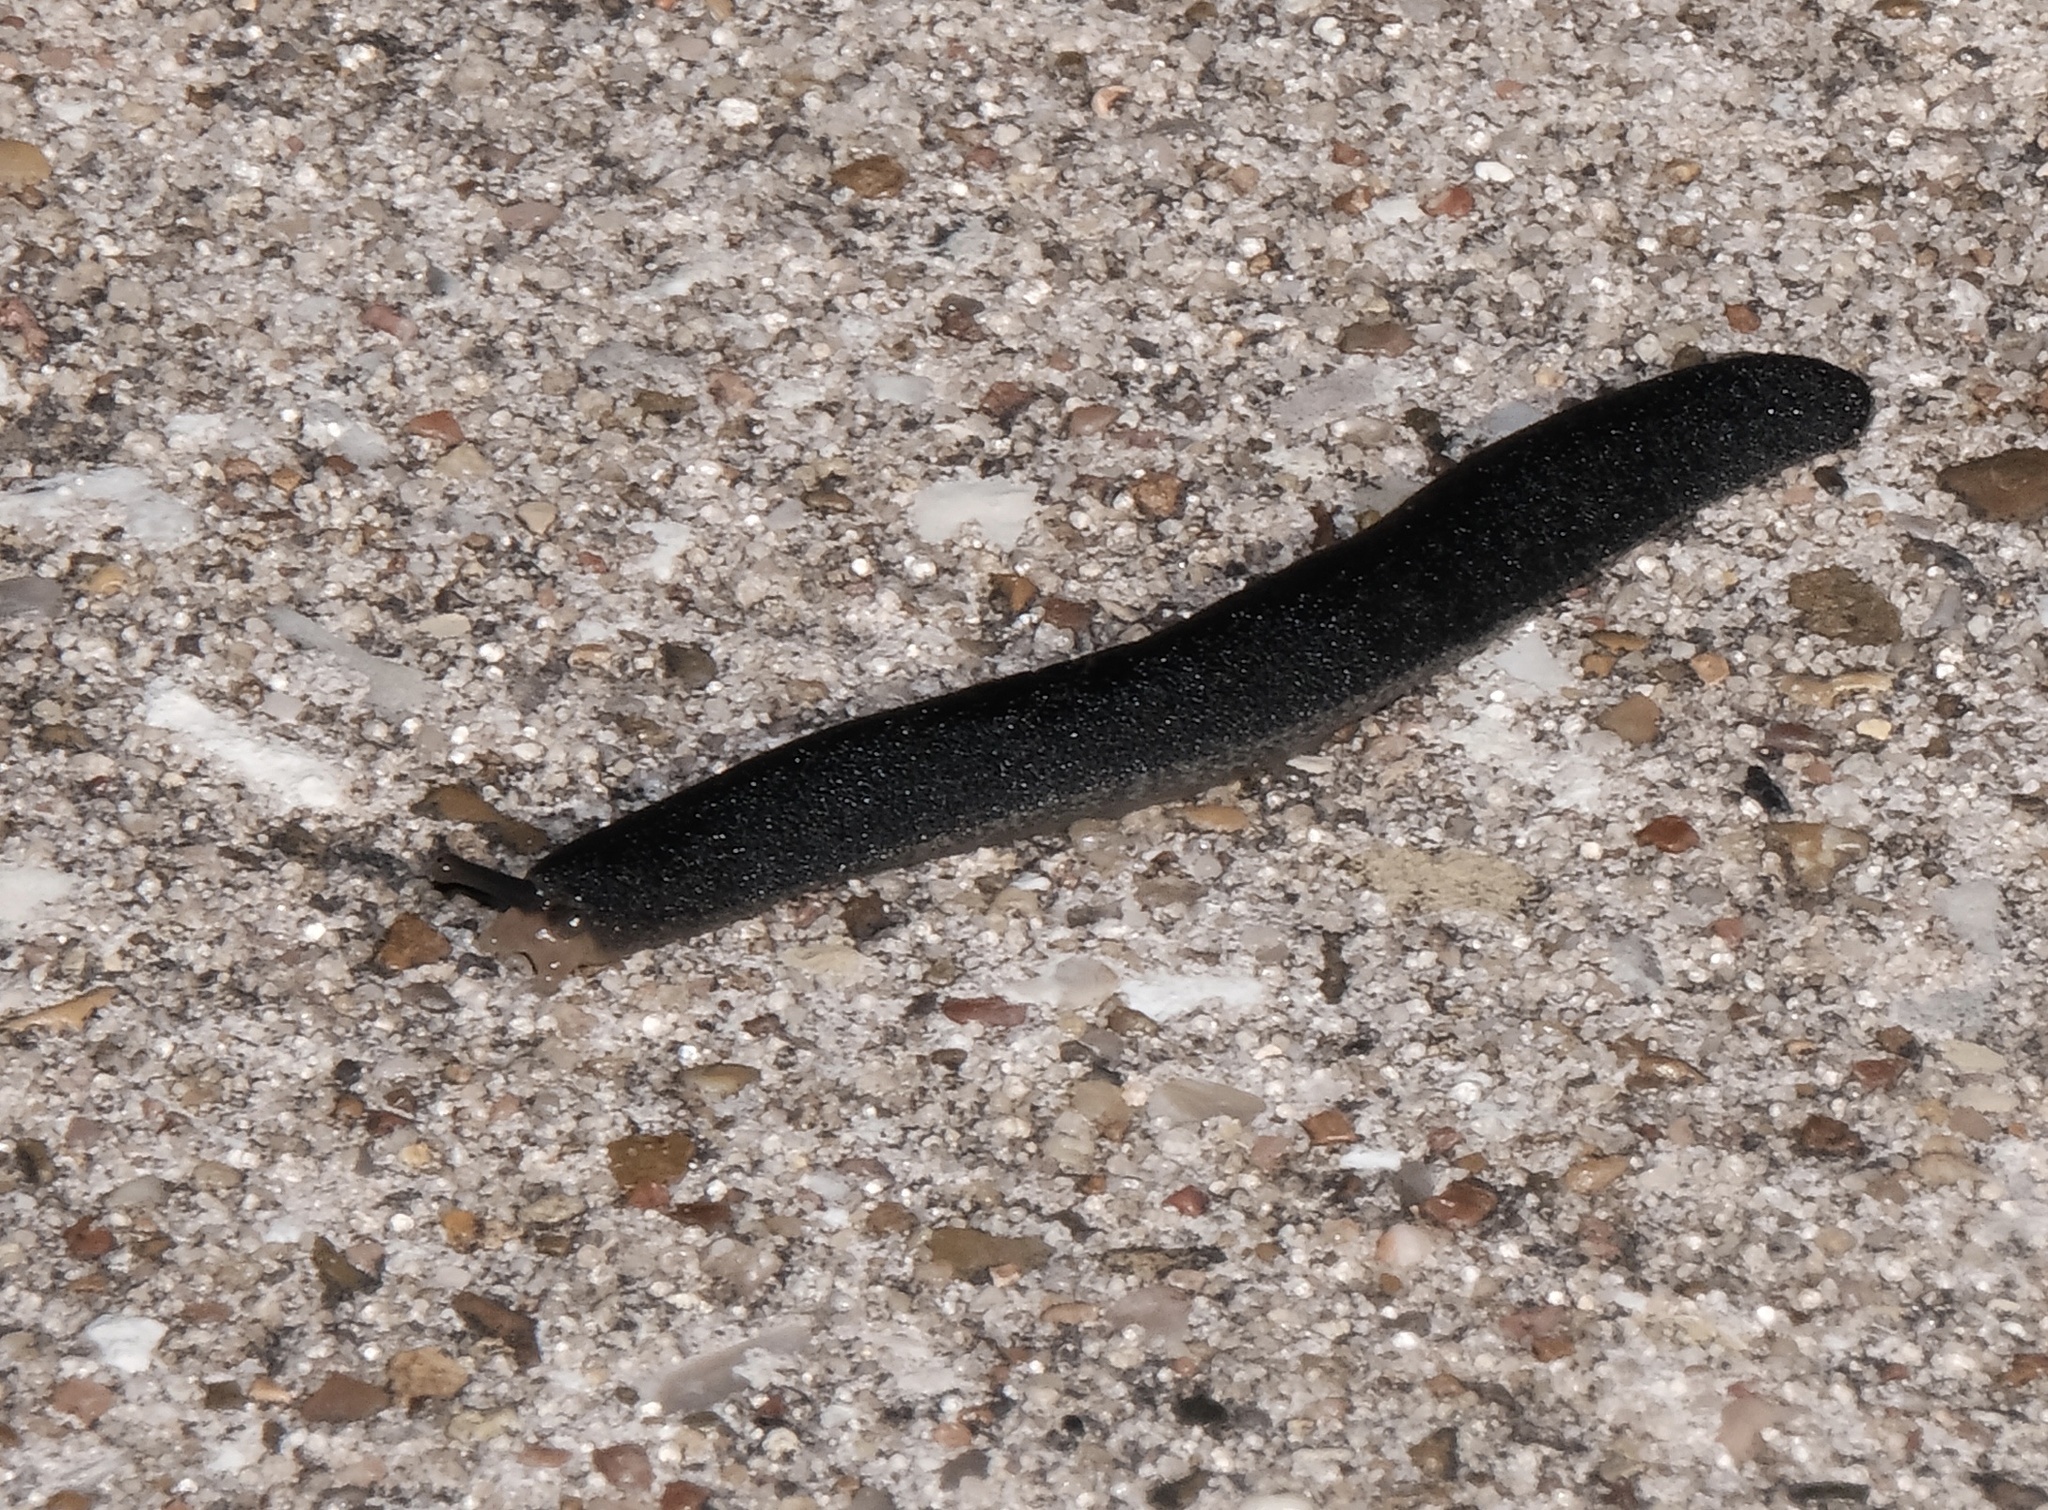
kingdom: Animalia
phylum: Mollusca
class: Gastropoda
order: Systellommatophora
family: Veronicellidae
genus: Belocaulus
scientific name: Belocaulus angustipes
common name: Black velvet leatherleaf slug
